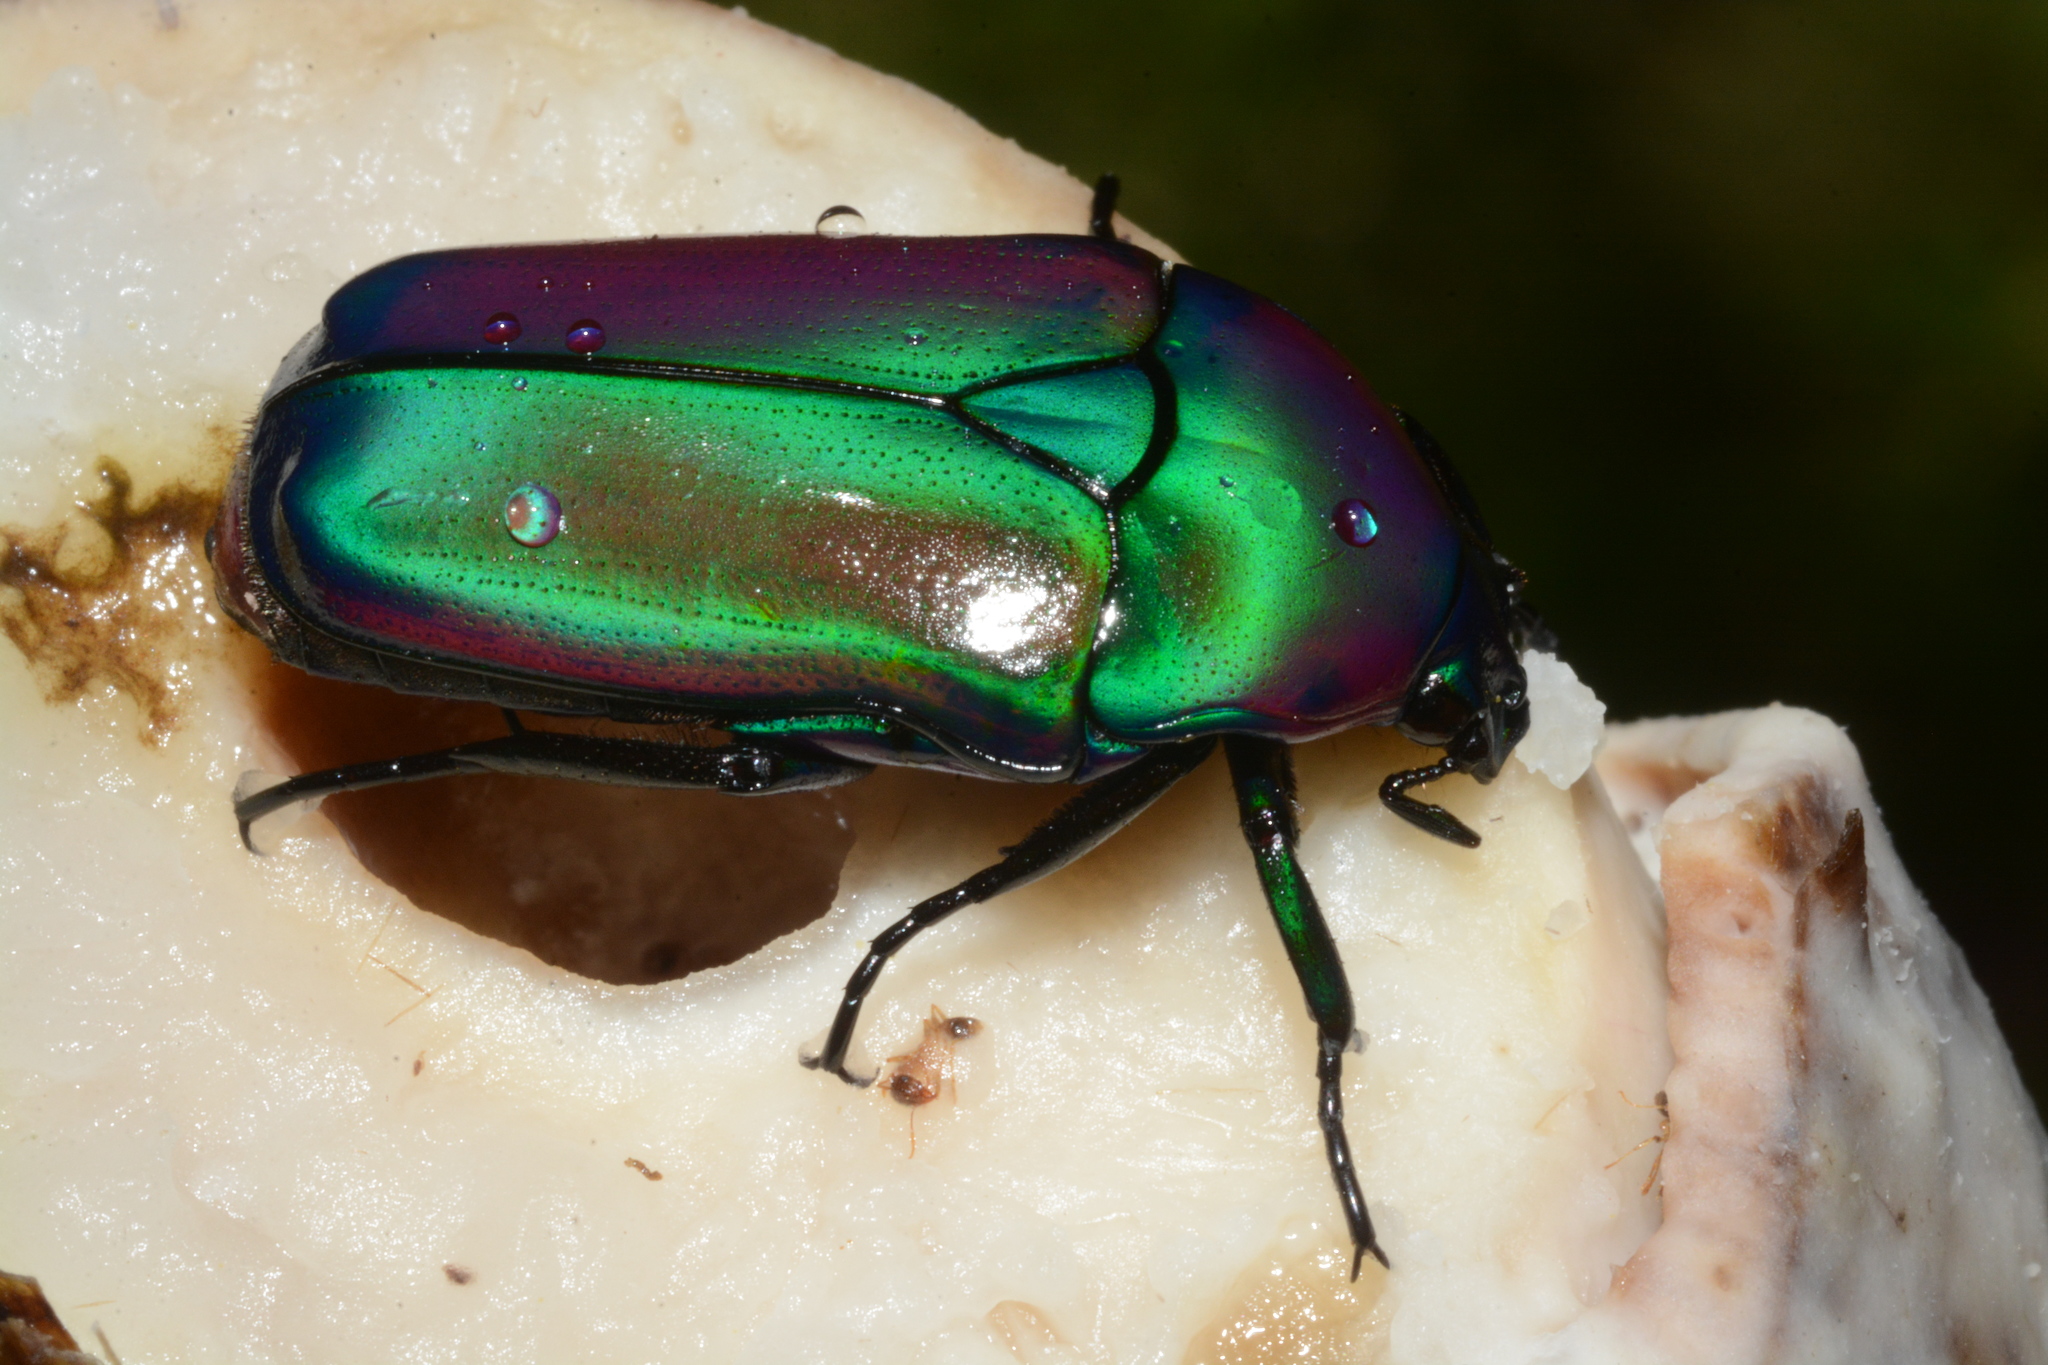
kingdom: Animalia
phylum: Arthropoda
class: Insecta
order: Coleoptera
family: Scarabaeidae
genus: Chlorocala
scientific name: Chlorocala africana
